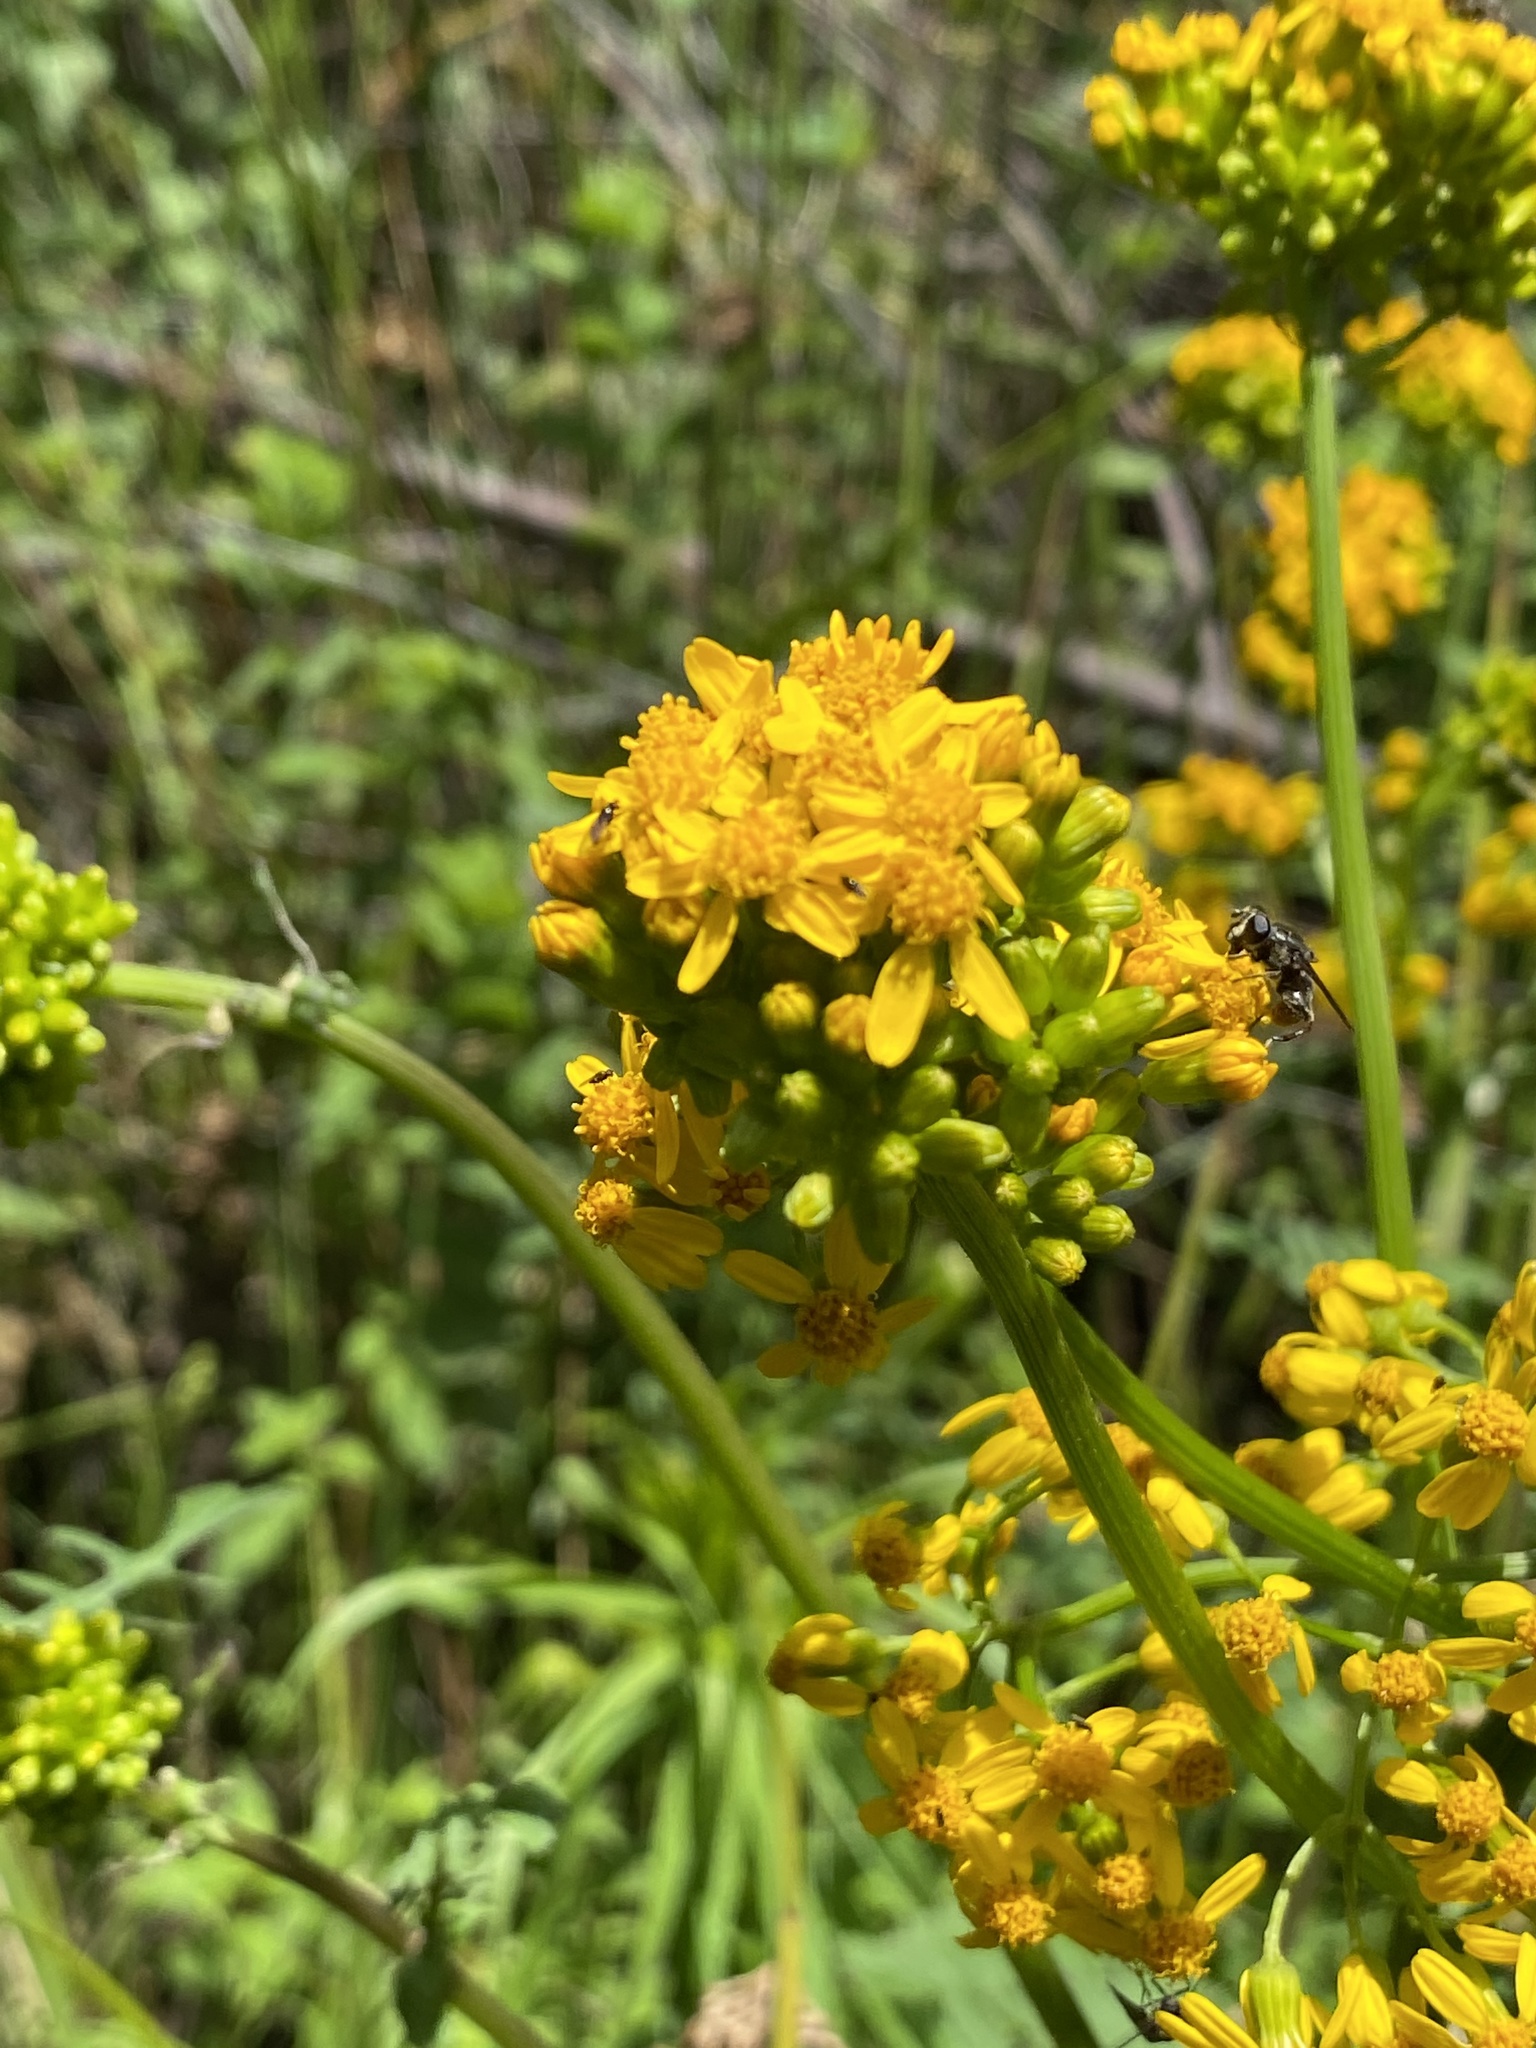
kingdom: Plantae
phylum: Tracheophyta
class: Magnoliopsida
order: Asterales
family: Asteraceae
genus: Packera
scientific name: Packera sanguisorbae
